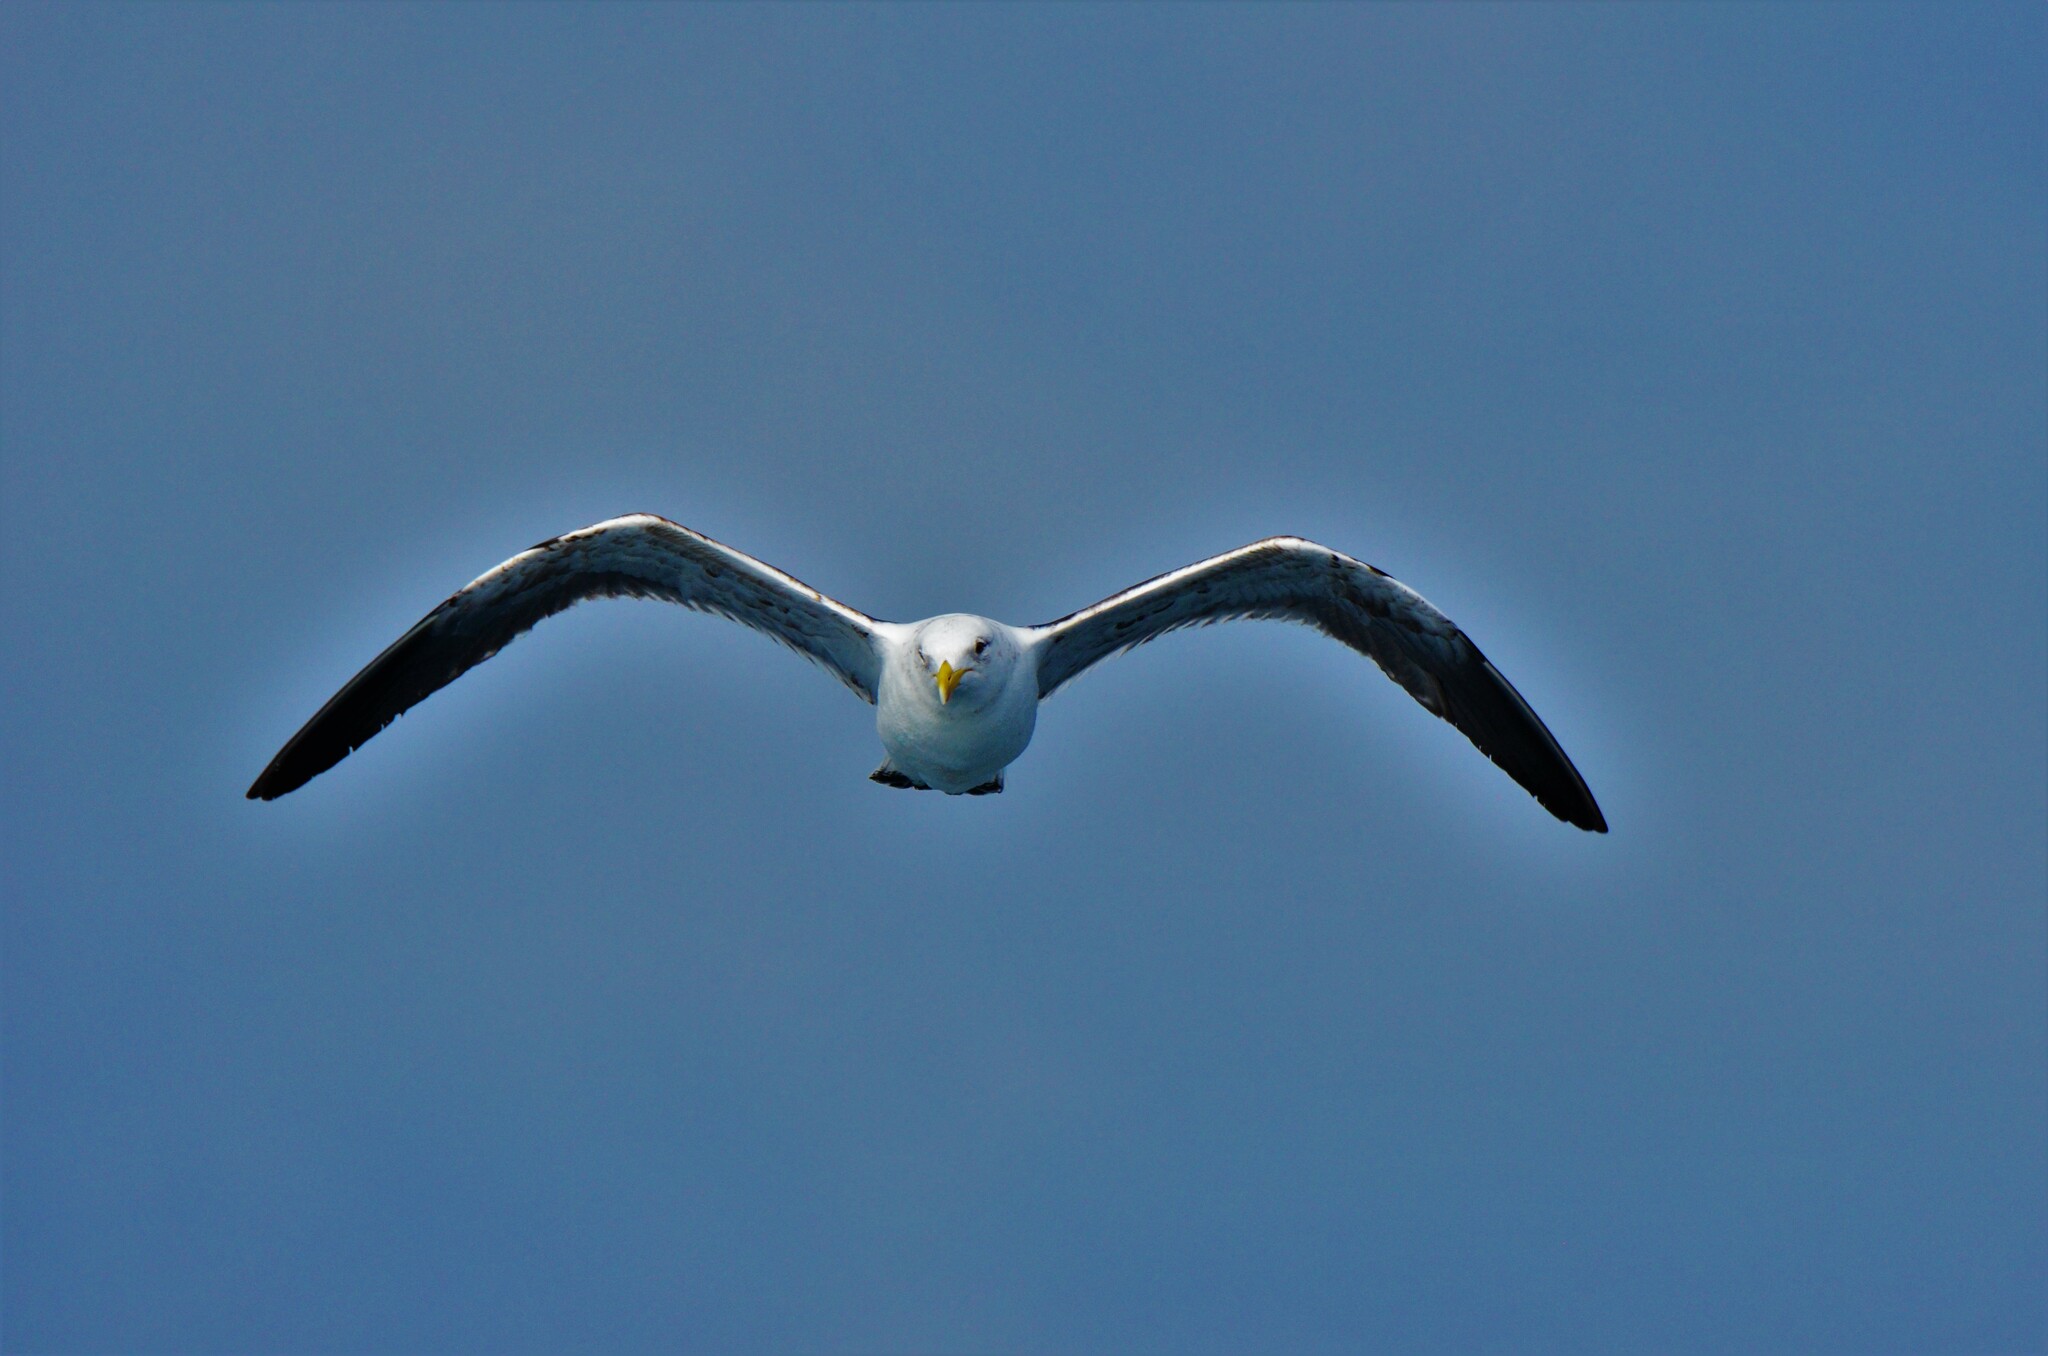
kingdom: Animalia
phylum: Chordata
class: Aves
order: Charadriiformes
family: Laridae
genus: Larus
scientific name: Larus dominicanus
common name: Kelp gull
